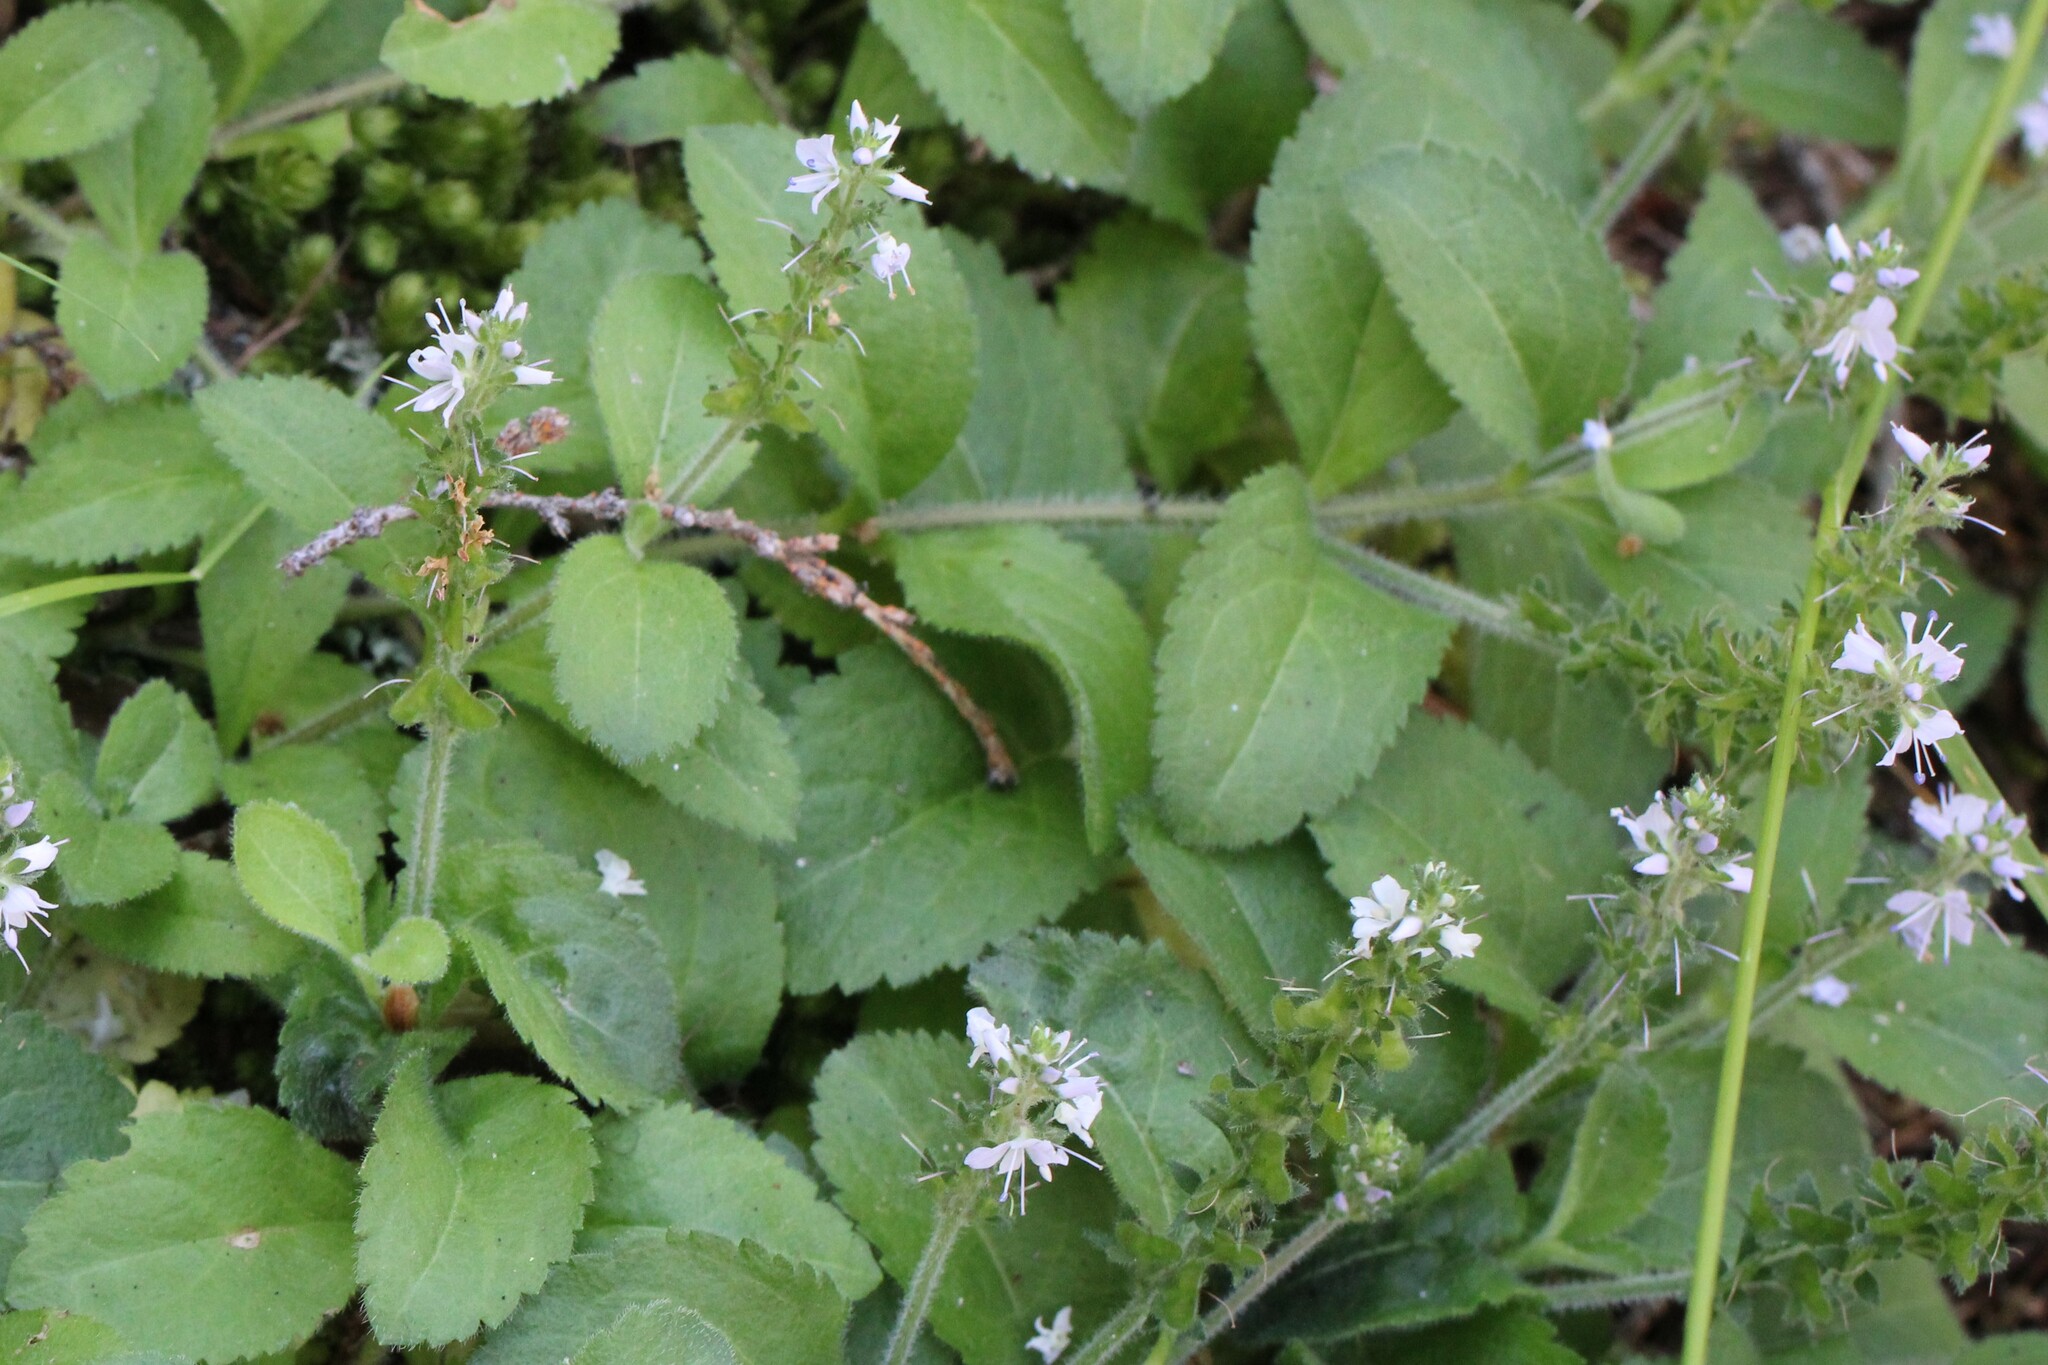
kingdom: Plantae
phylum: Tracheophyta
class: Magnoliopsida
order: Lamiales
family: Plantaginaceae
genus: Veronica
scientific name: Veronica officinalis
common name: Common speedwell
